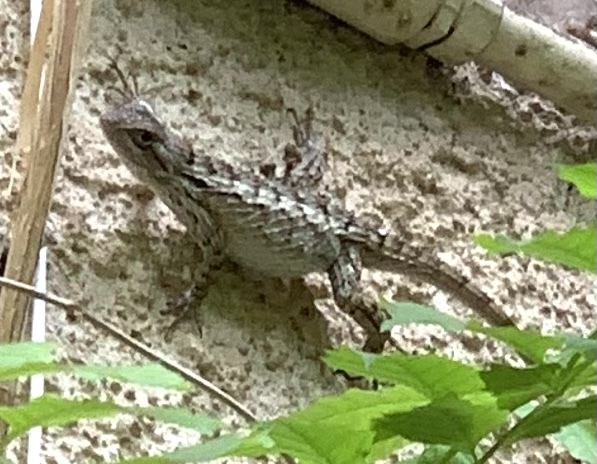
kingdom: Animalia
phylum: Chordata
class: Squamata
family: Phrynosomatidae
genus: Sceloporus
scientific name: Sceloporus olivaceus
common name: Texas spiny lizard
